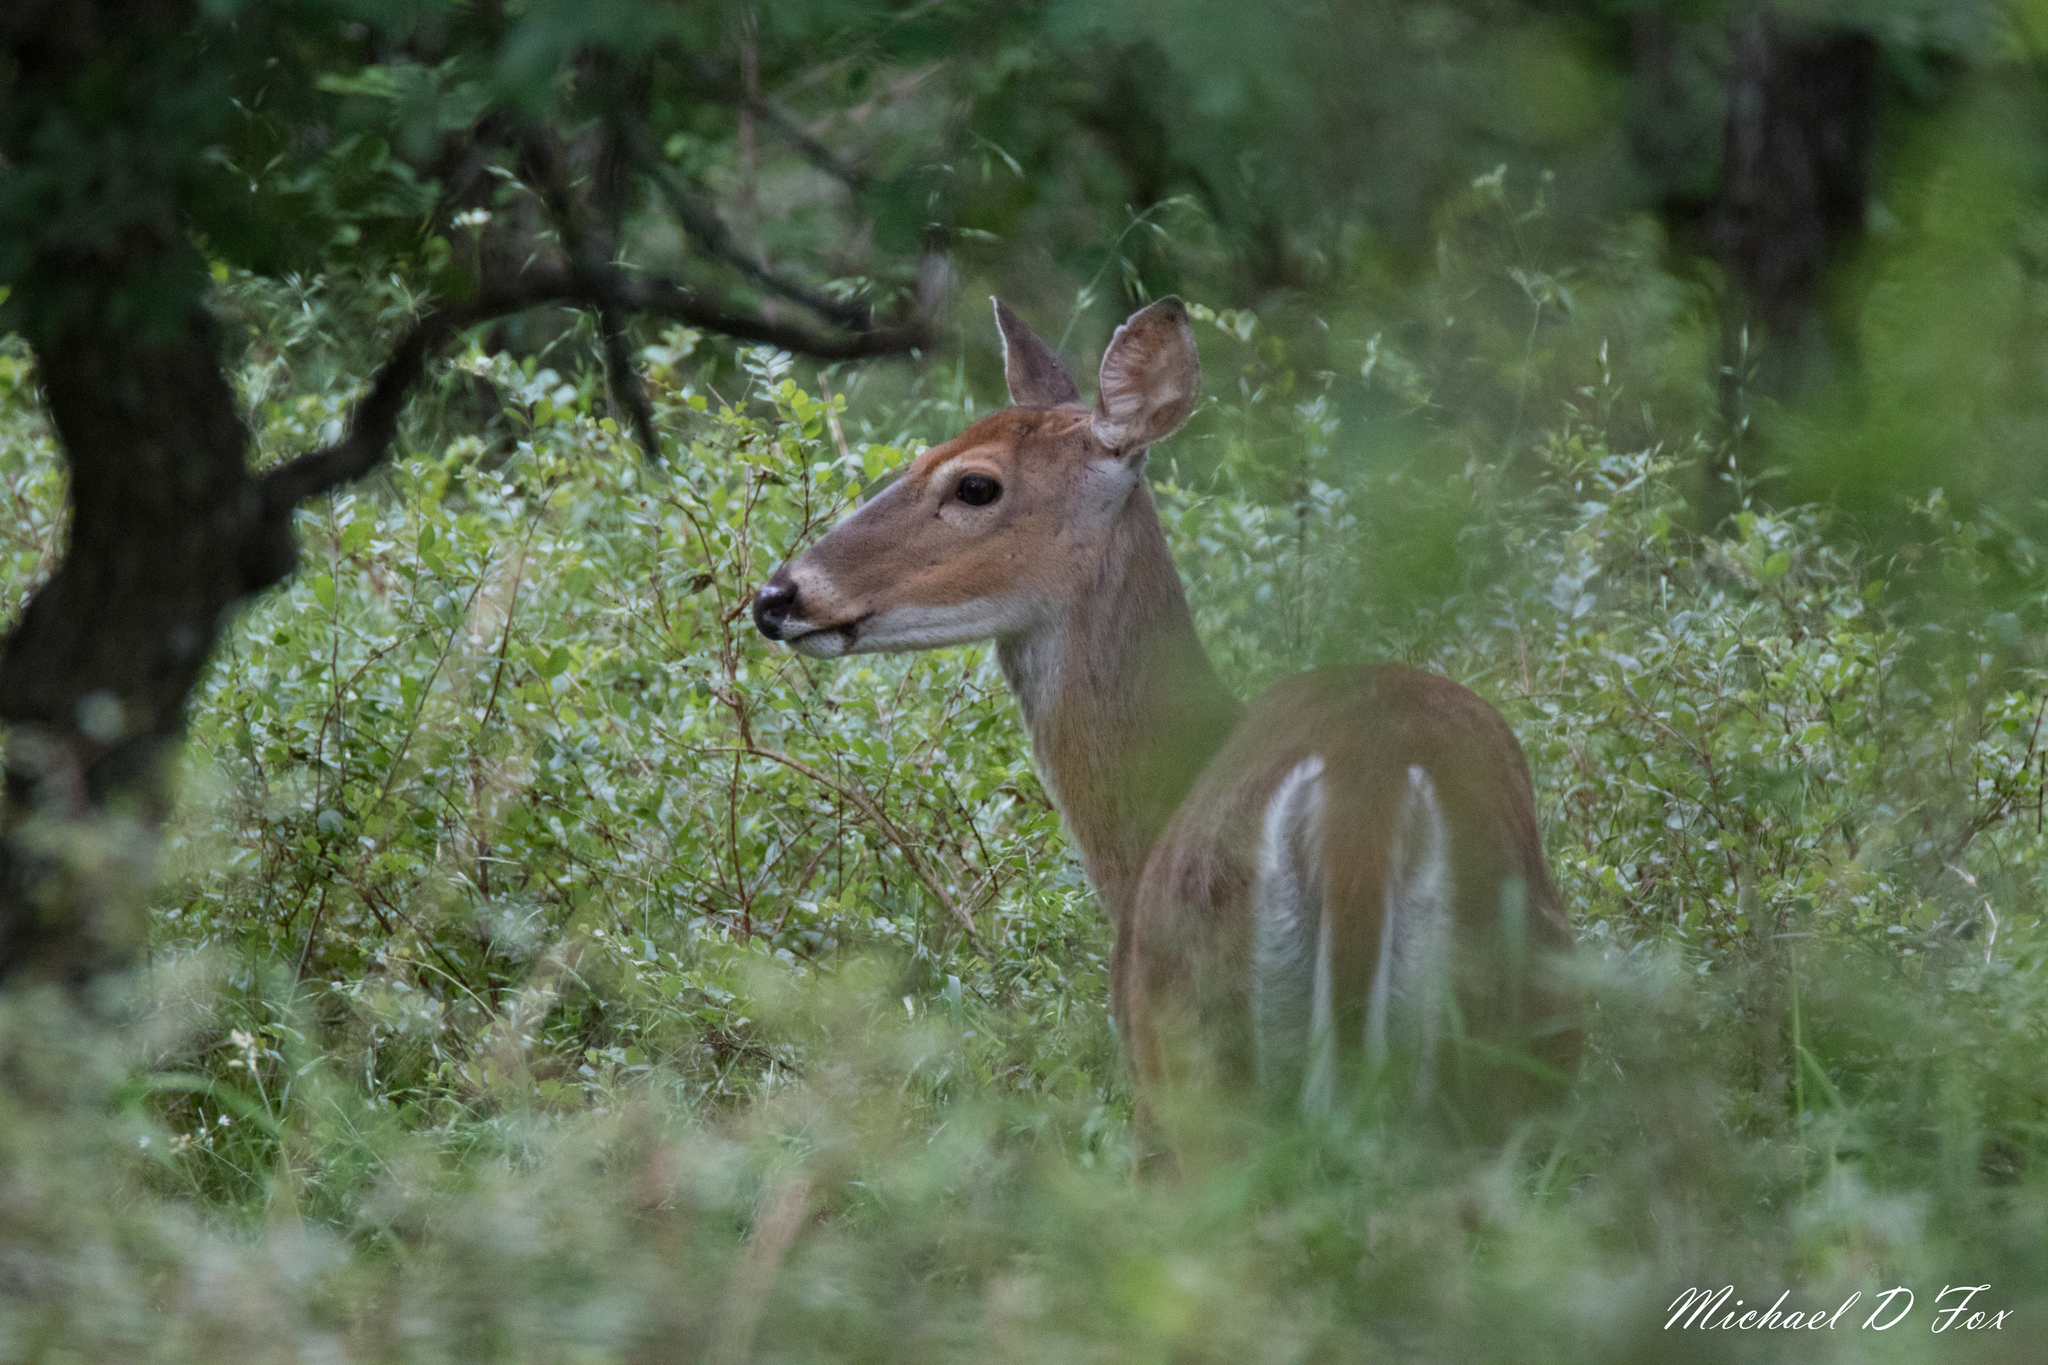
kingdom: Animalia
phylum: Chordata
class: Mammalia
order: Artiodactyla
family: Cervidae
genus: Odocoileus
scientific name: Odocoileus virginianus
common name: White-tailed deer
